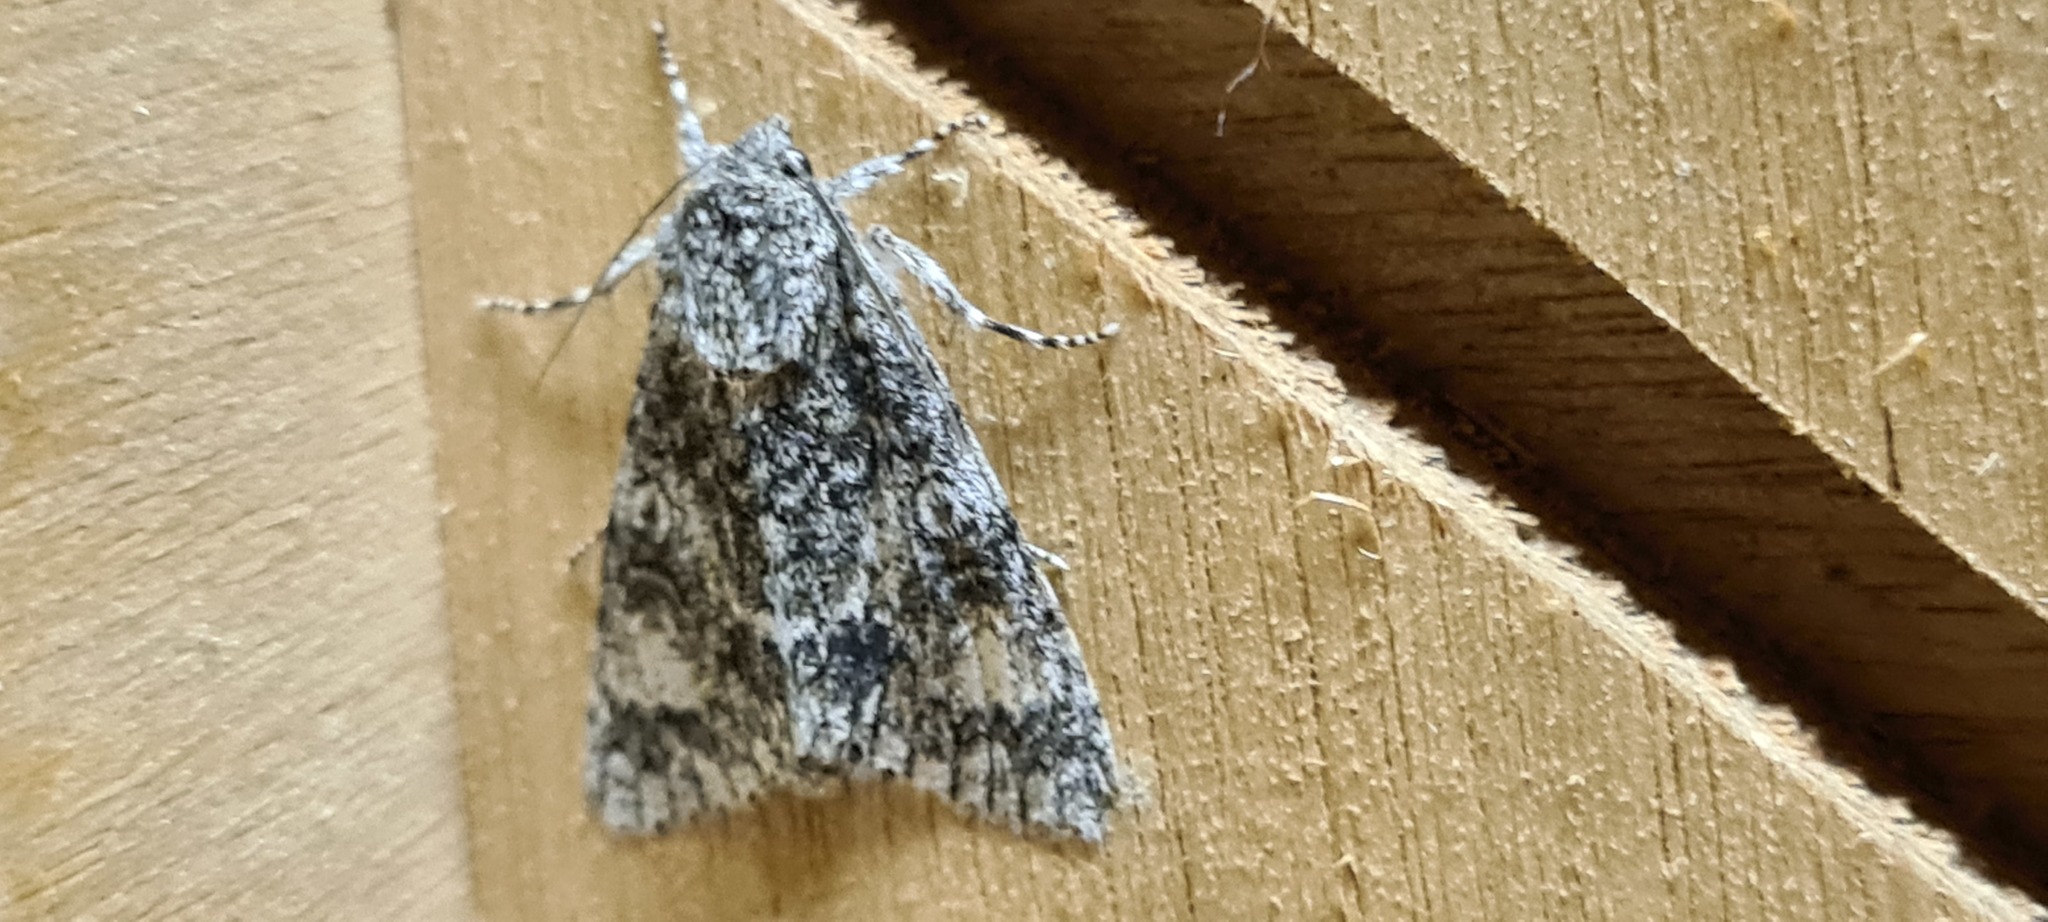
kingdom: Animalia
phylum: Arthropoda
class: Insecta
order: Lepidoptera
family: Noctuidae
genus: Acronicta
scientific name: Acronicta megacephala
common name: Poplar grey
